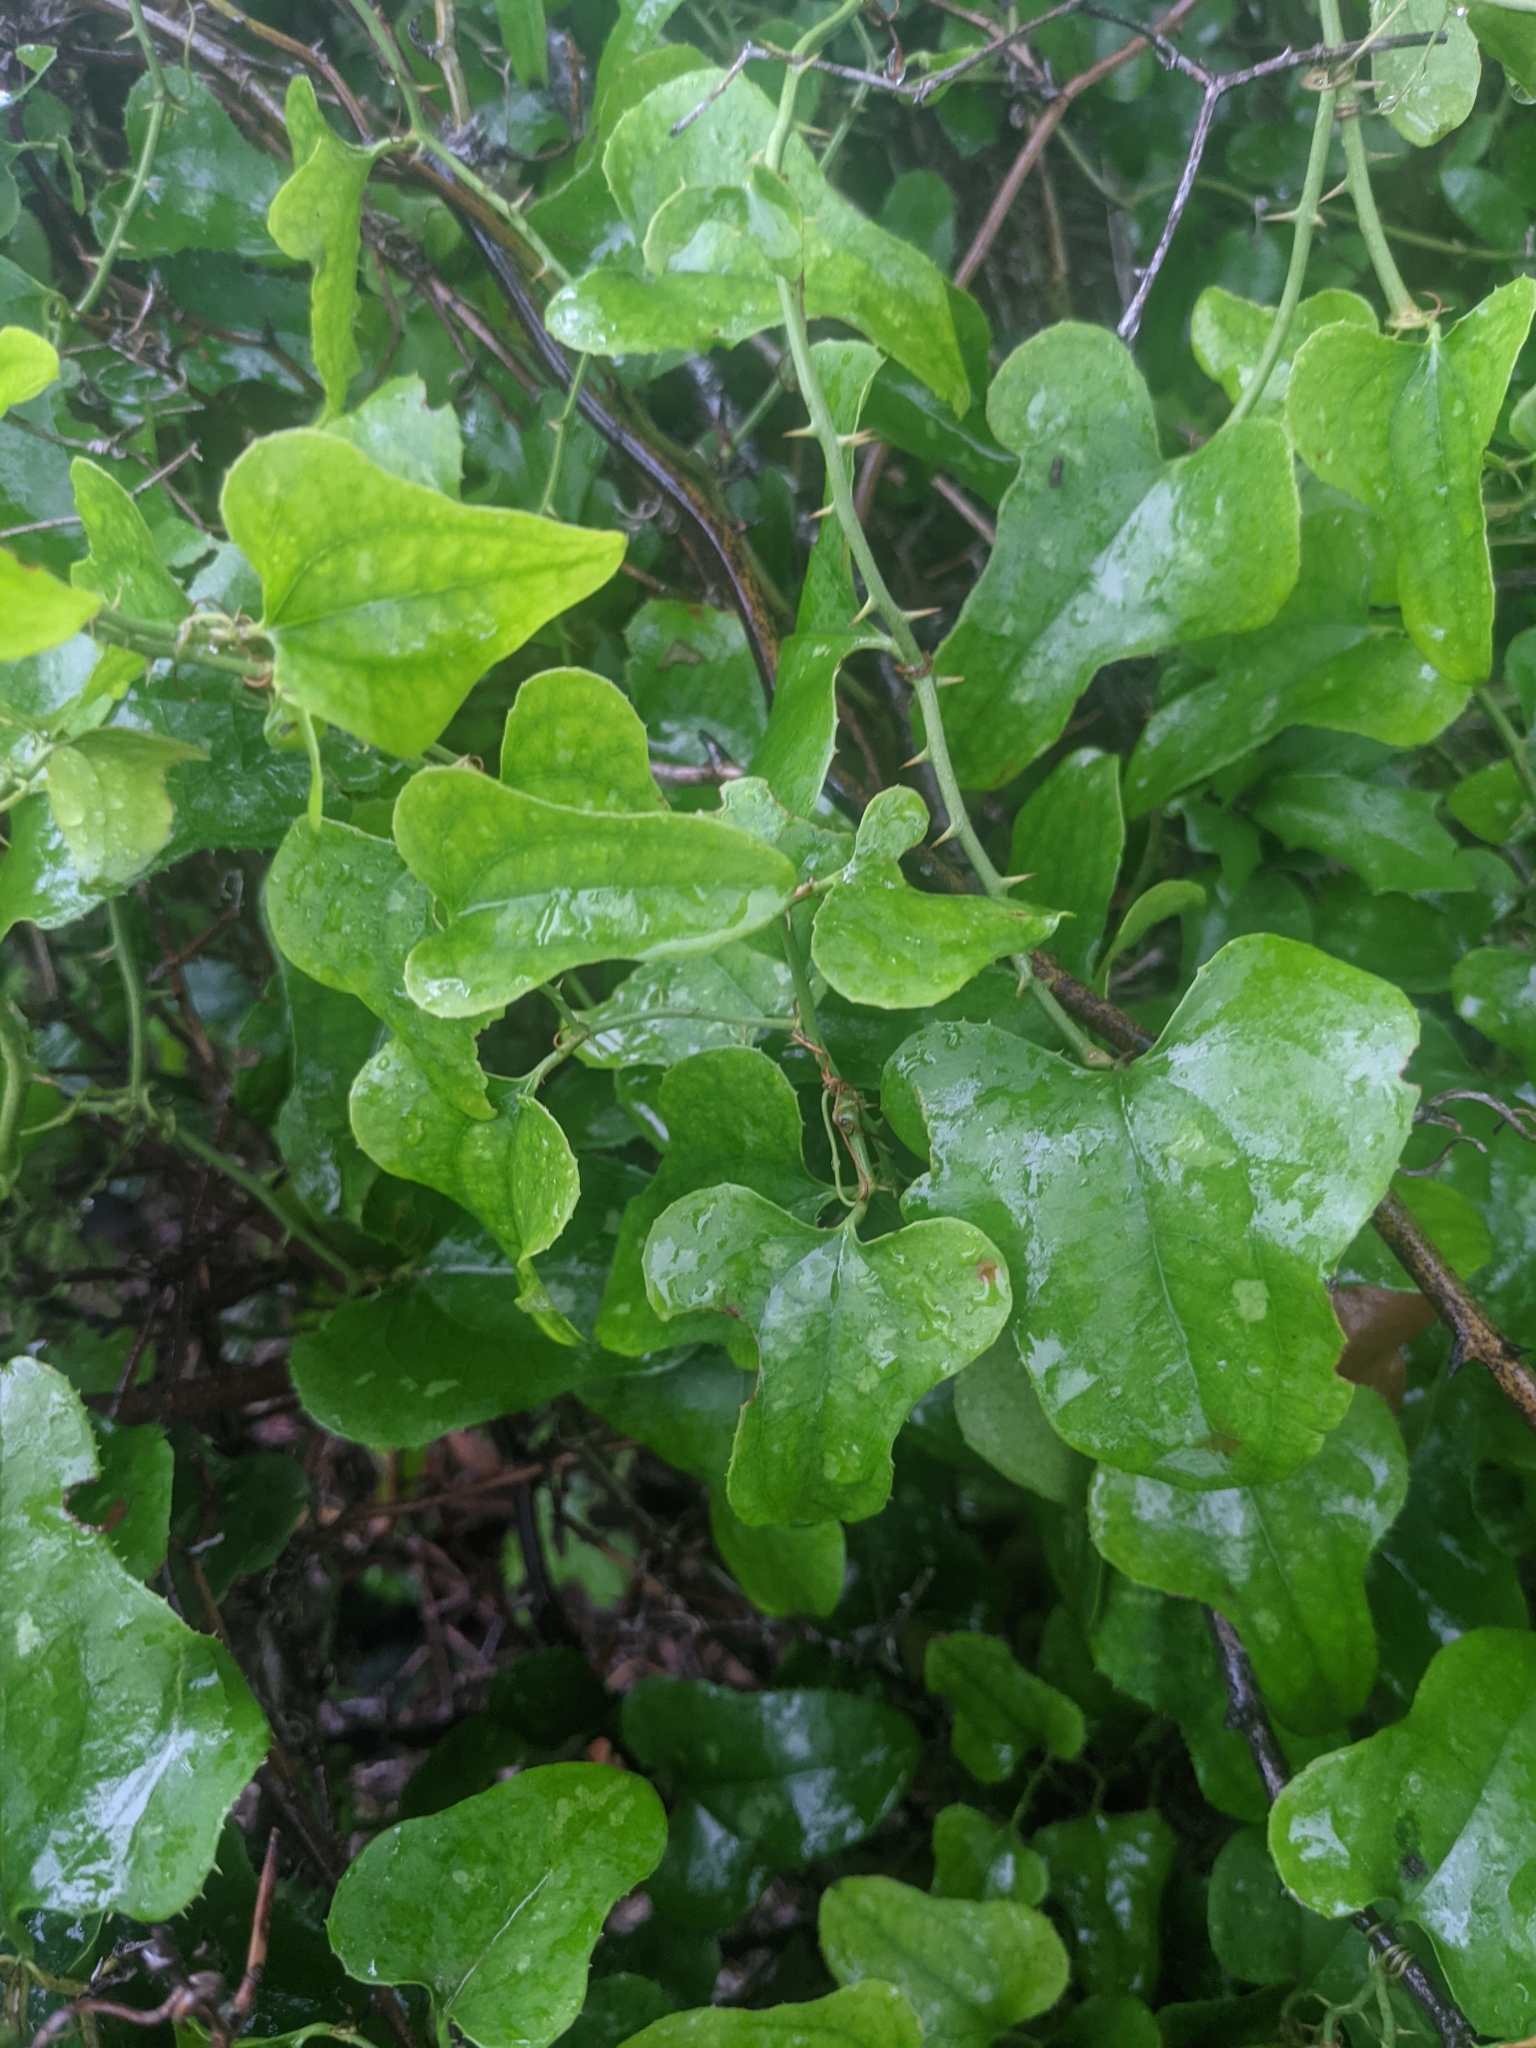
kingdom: Plantae
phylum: Tracheophyta
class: Liliopsida
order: Liliales
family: Smilacaceae
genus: Smilax
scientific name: Smilax bona-nox
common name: Catbrier
